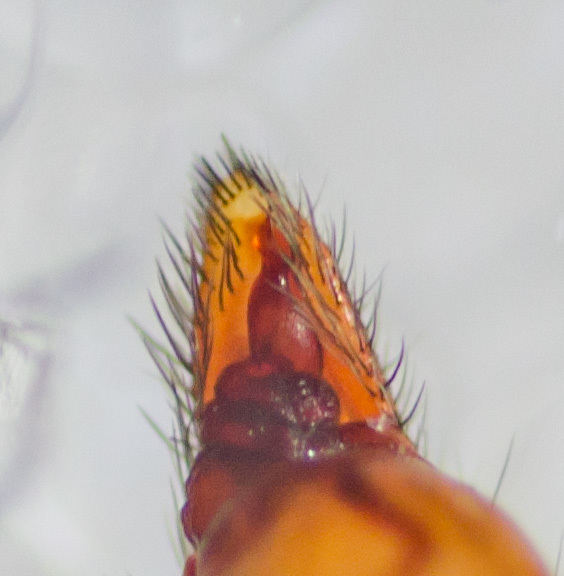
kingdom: Animalia
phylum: Arthropoda
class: Arachnida
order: Araneae
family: Trachelidae
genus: Trachelas
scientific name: Trachelas volutus
